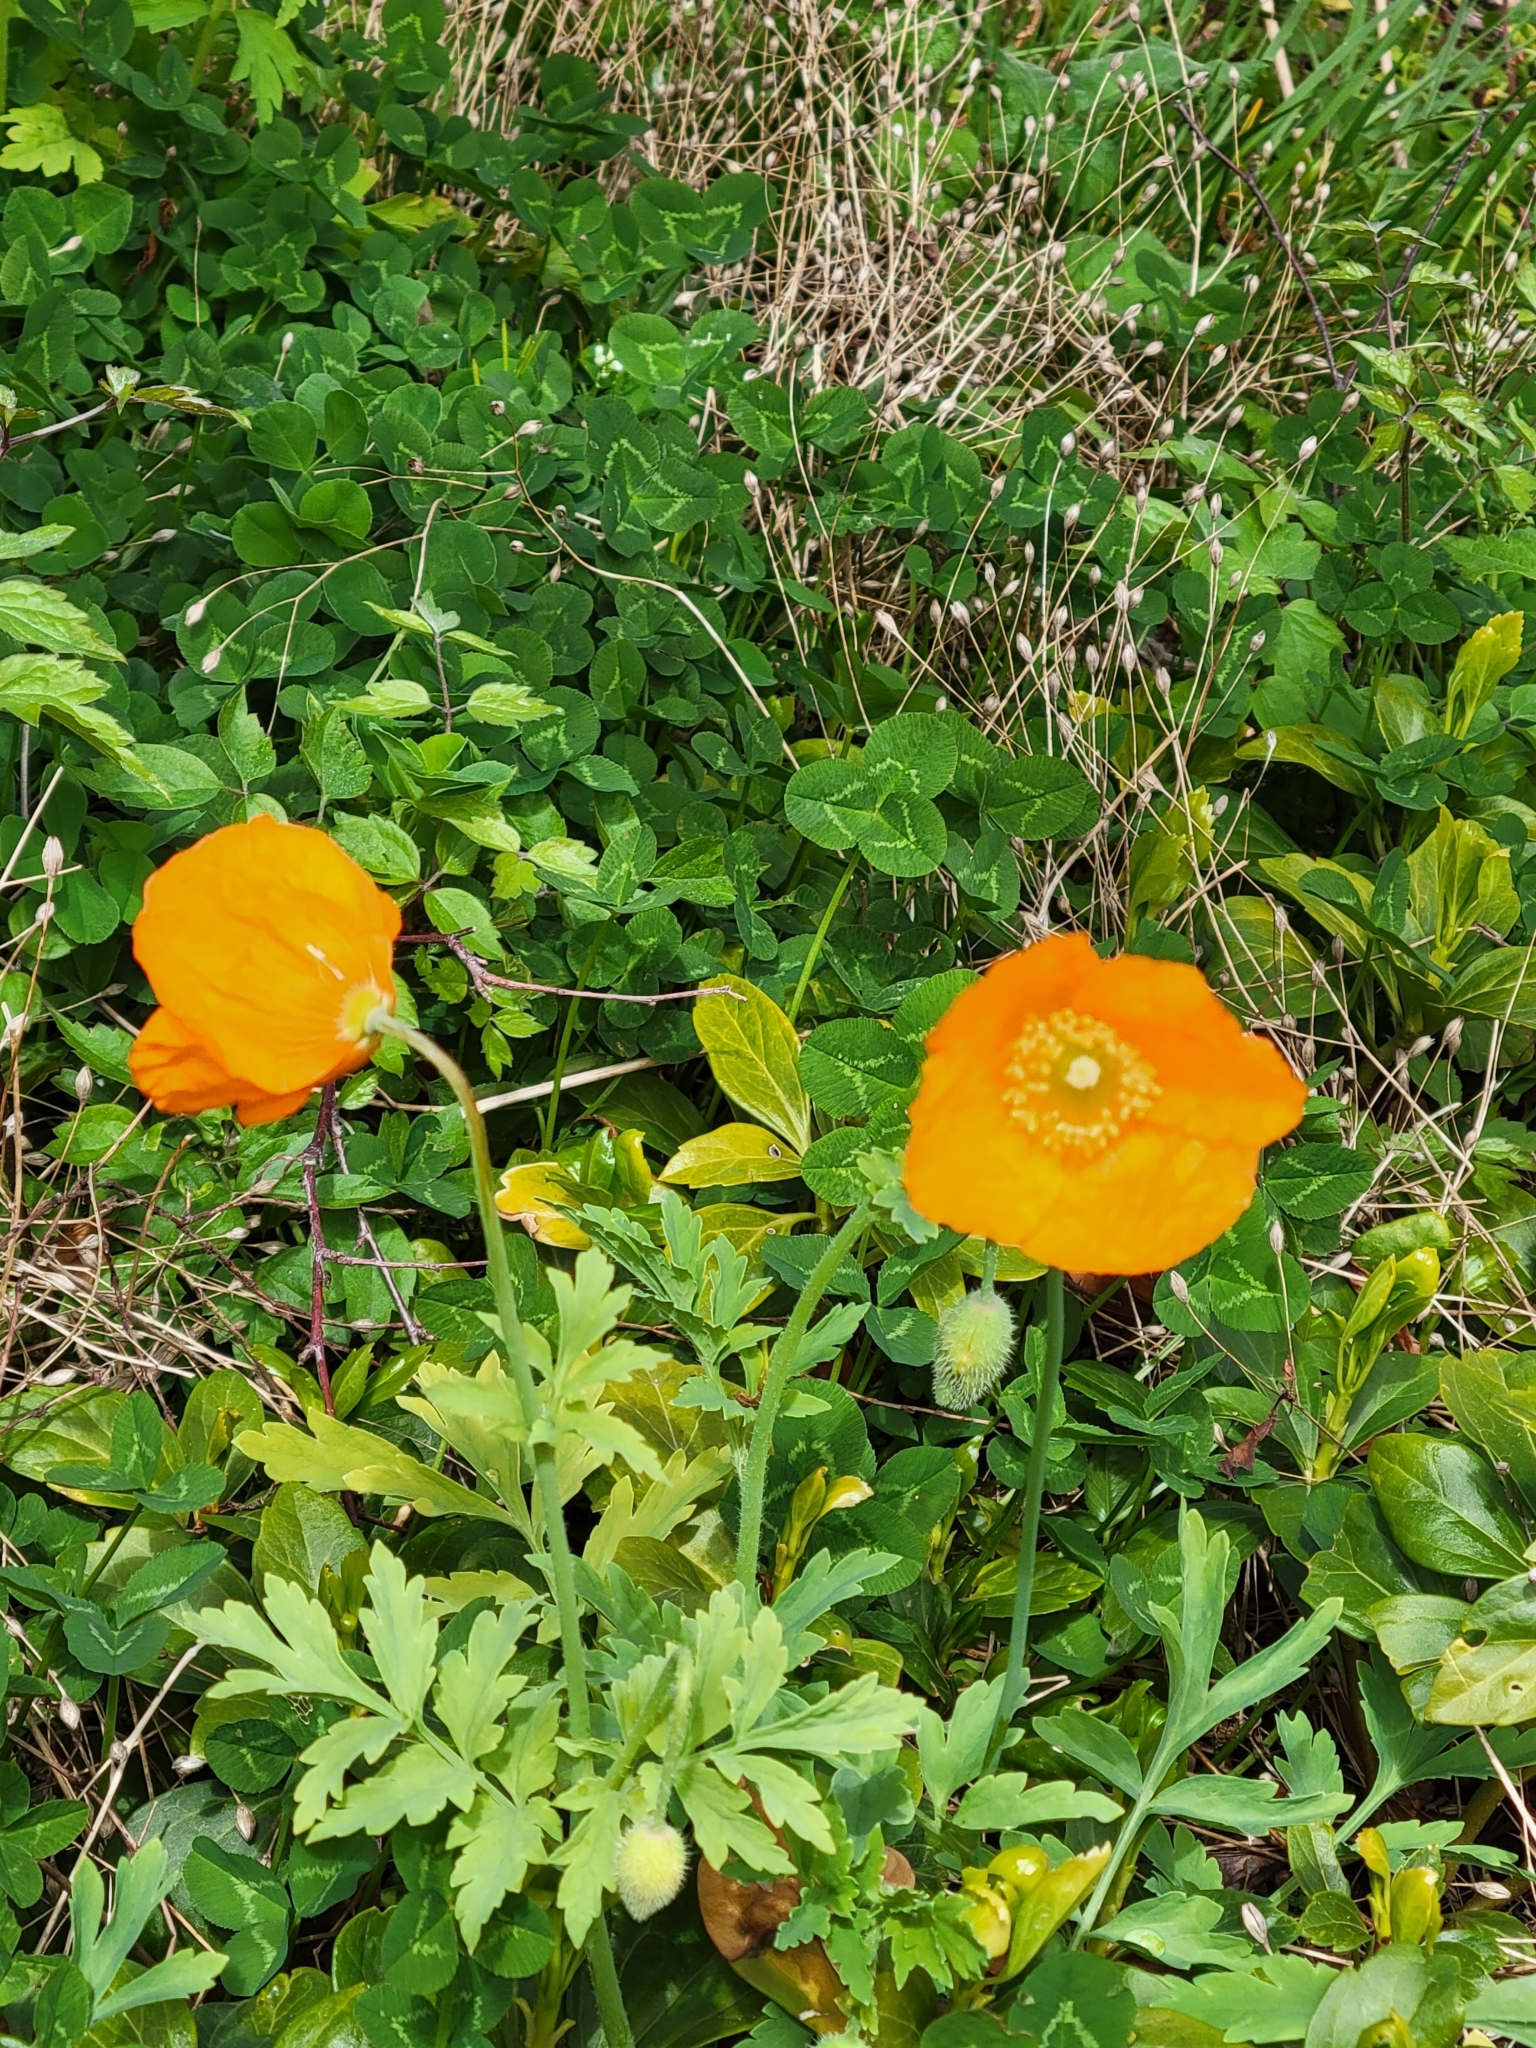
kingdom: Plantae
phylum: Tracheophyta
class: Magnoliopsida
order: Ranunculales
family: Papaveraceae
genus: Papaver
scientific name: Papaver cambricum
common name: Poppy
